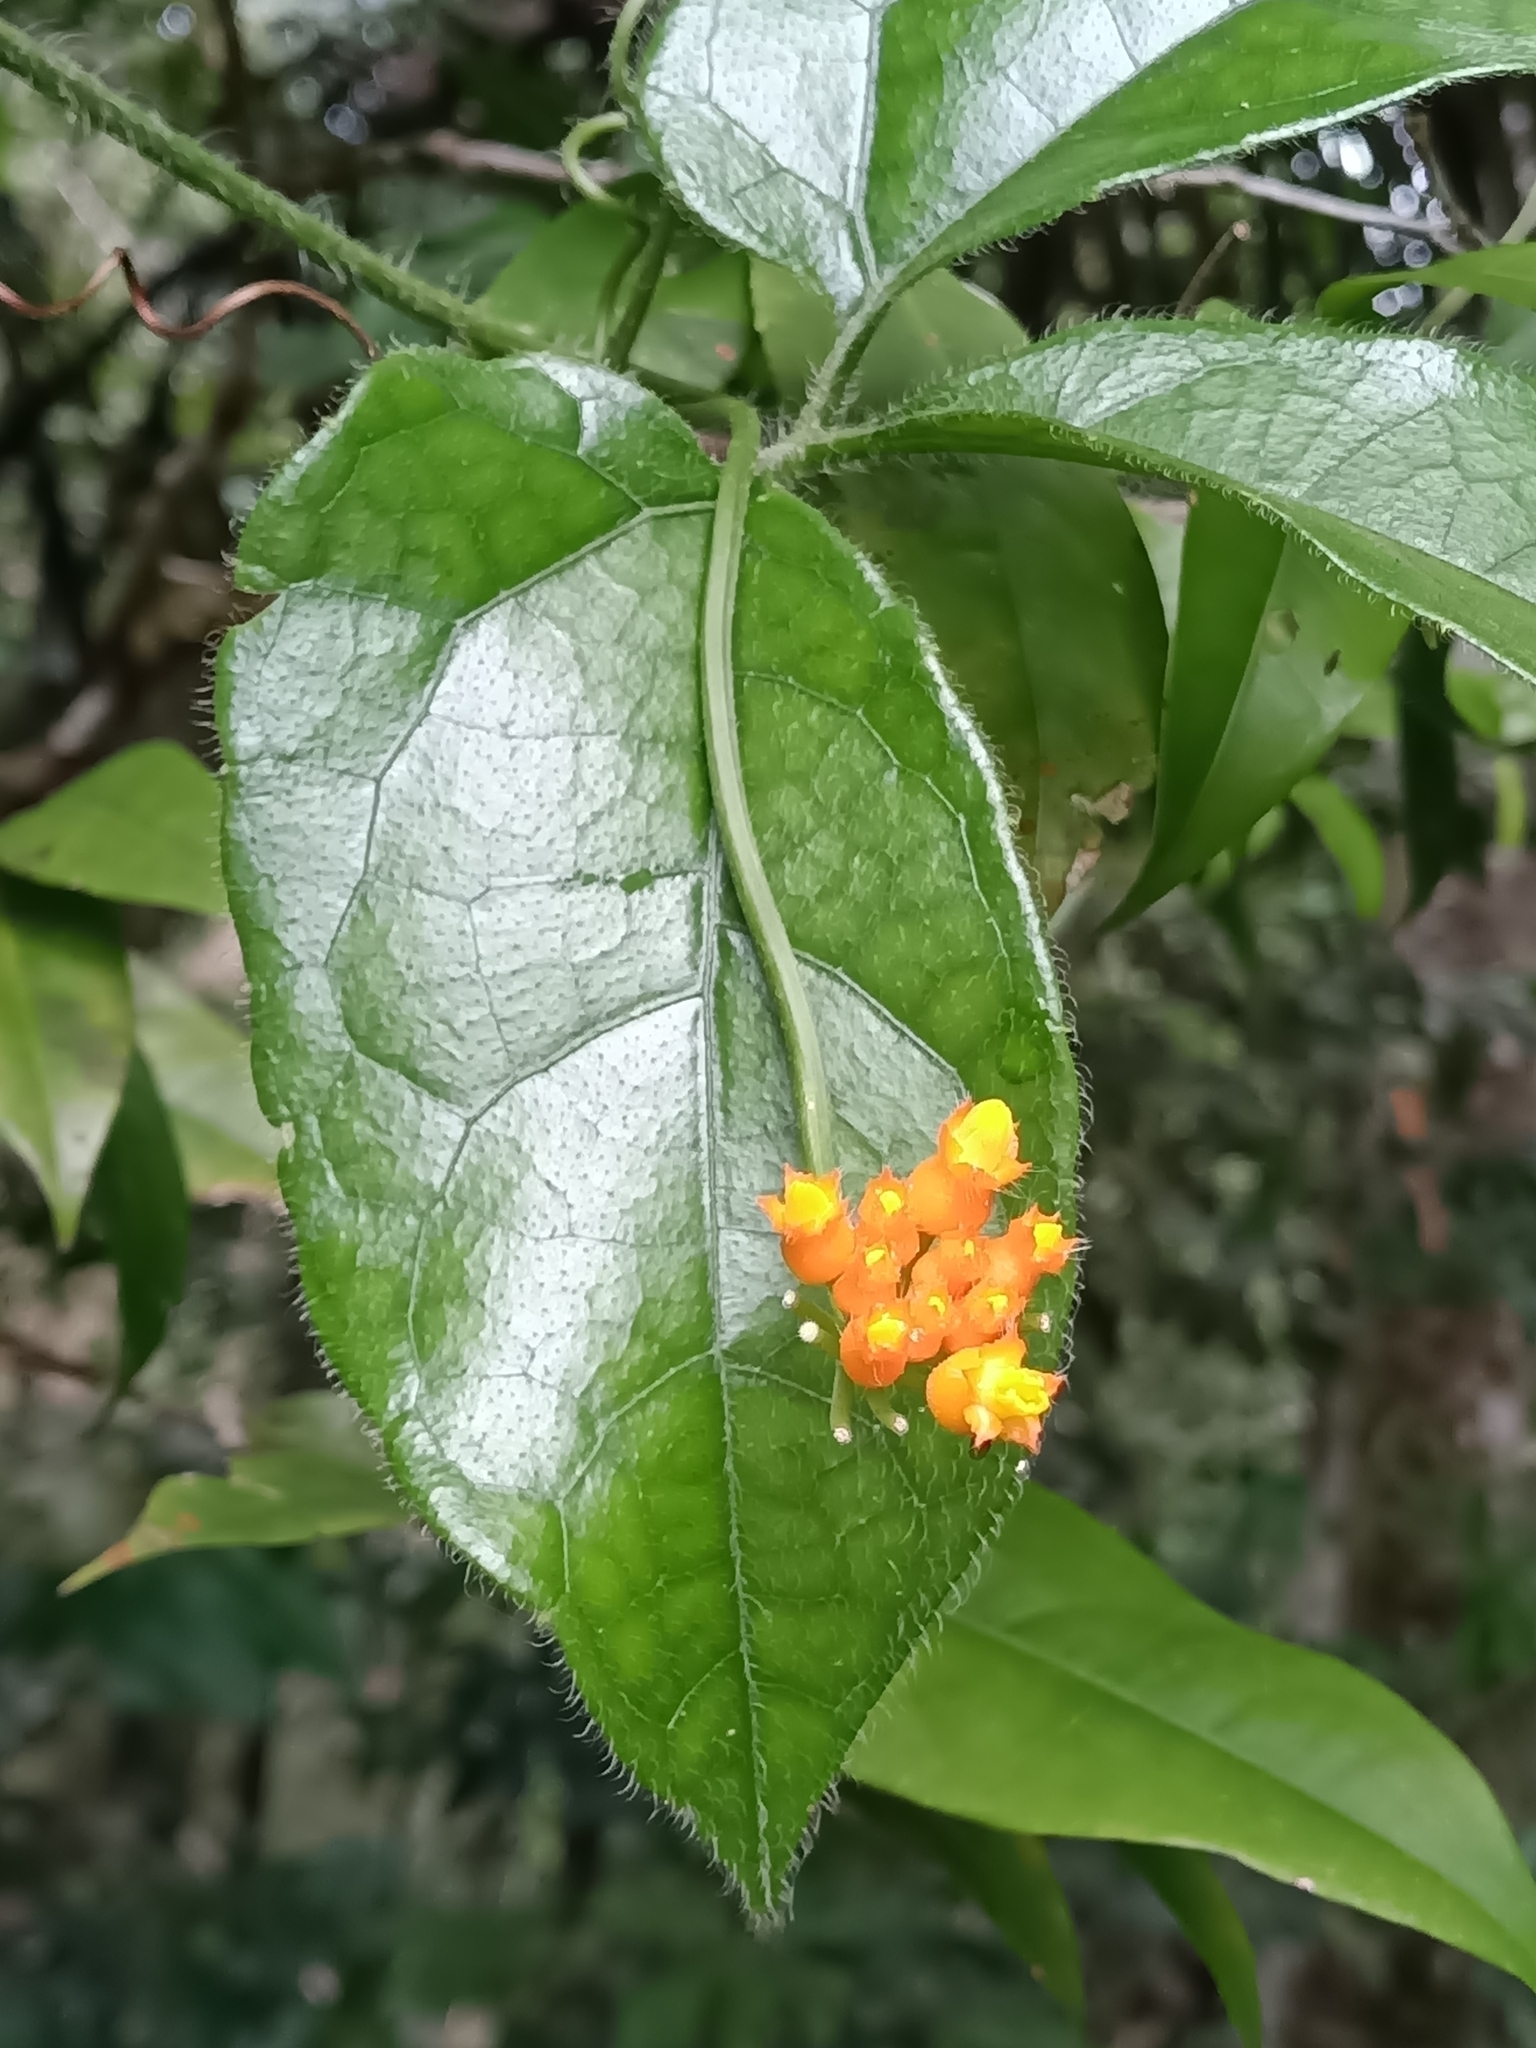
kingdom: Plantae
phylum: Tracheophyta
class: Magnoliopsida
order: Cucurbitales
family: Cucurbitaceae
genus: Gurania
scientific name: Gurania bignoniacea
